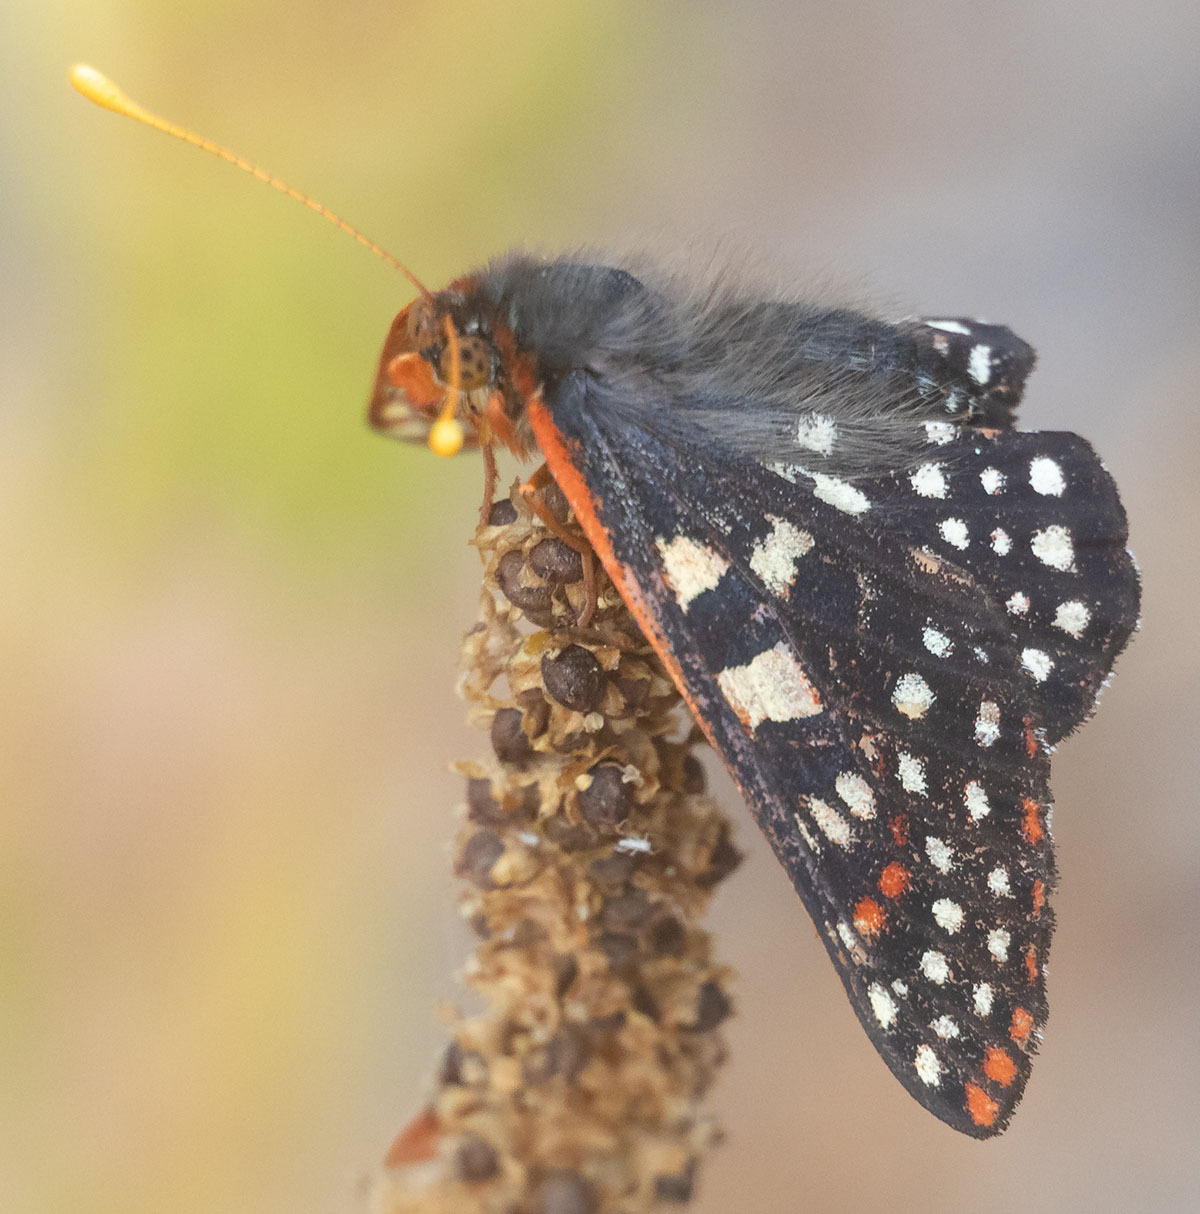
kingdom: Animalia
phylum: Arthropoda
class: Insecta
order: Lepidoptera
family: Nymphalidae
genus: Occidryas
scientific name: Occidryas chalcedona
